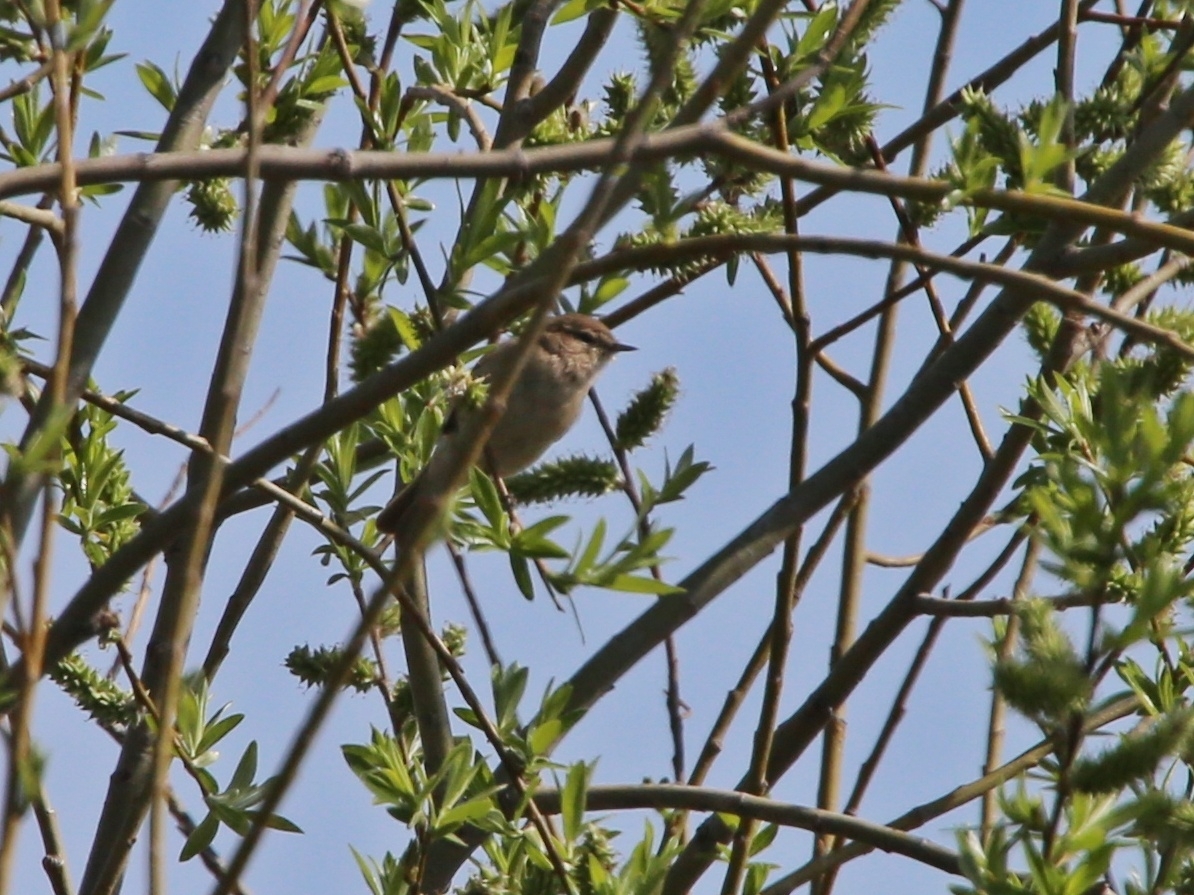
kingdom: Animalia
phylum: Chordata
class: Aves
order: Passeriformes
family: Phylloscopidae
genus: Phylloscopus
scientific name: Phylloscopus collybita
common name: Common chiffchaff
